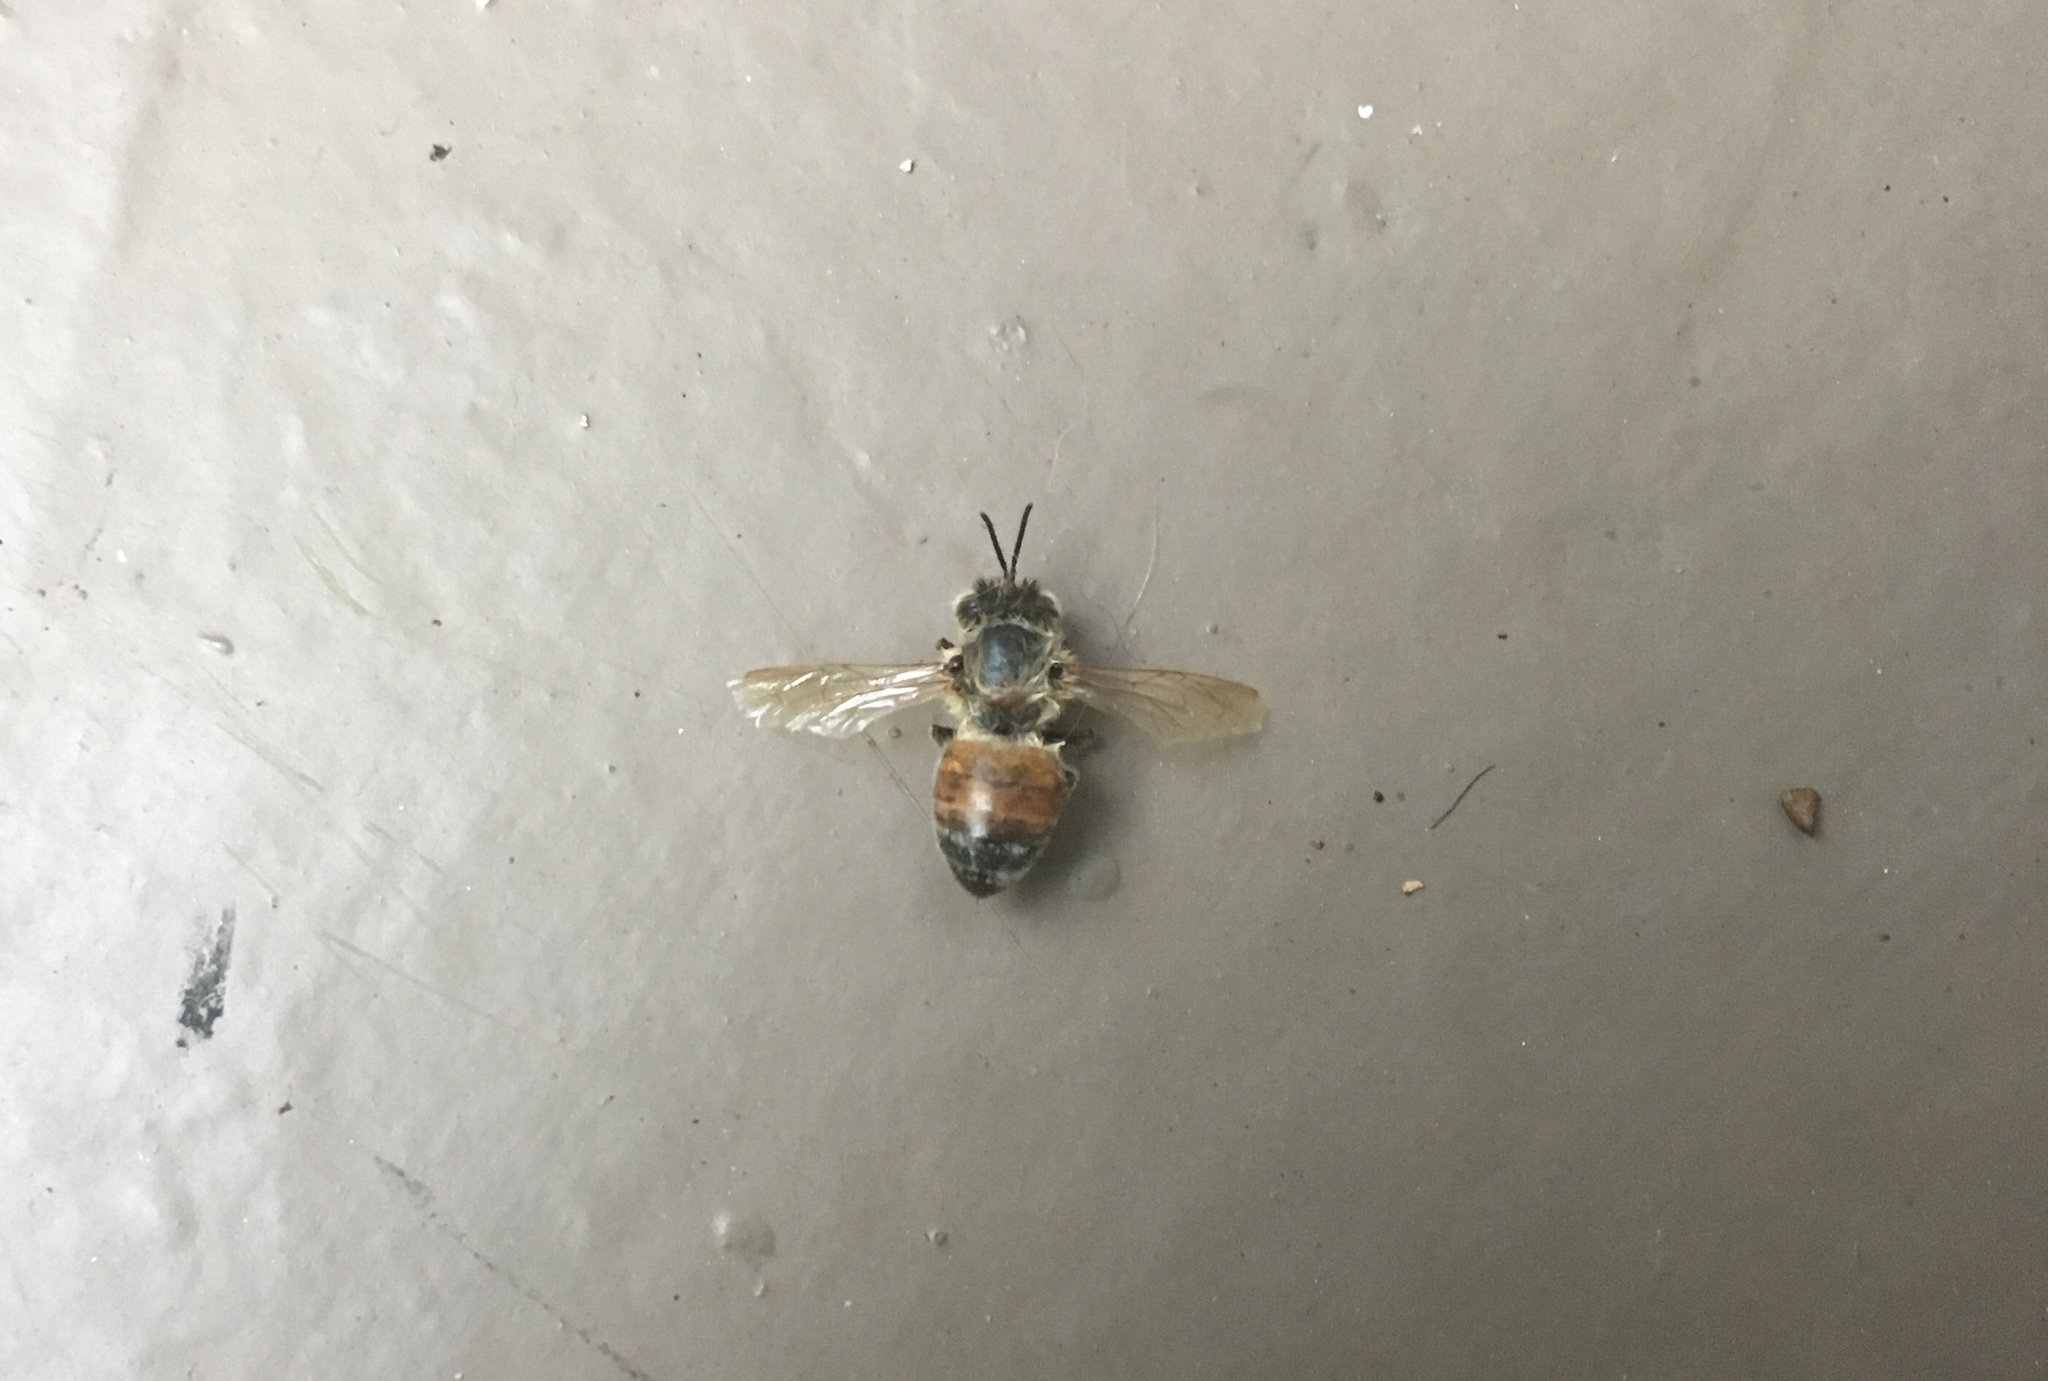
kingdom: Animalia
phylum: Arthropoda
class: Insecta
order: Hymenoptera
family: Apidae
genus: Apis
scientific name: Apis mellifera
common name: Honey bee
